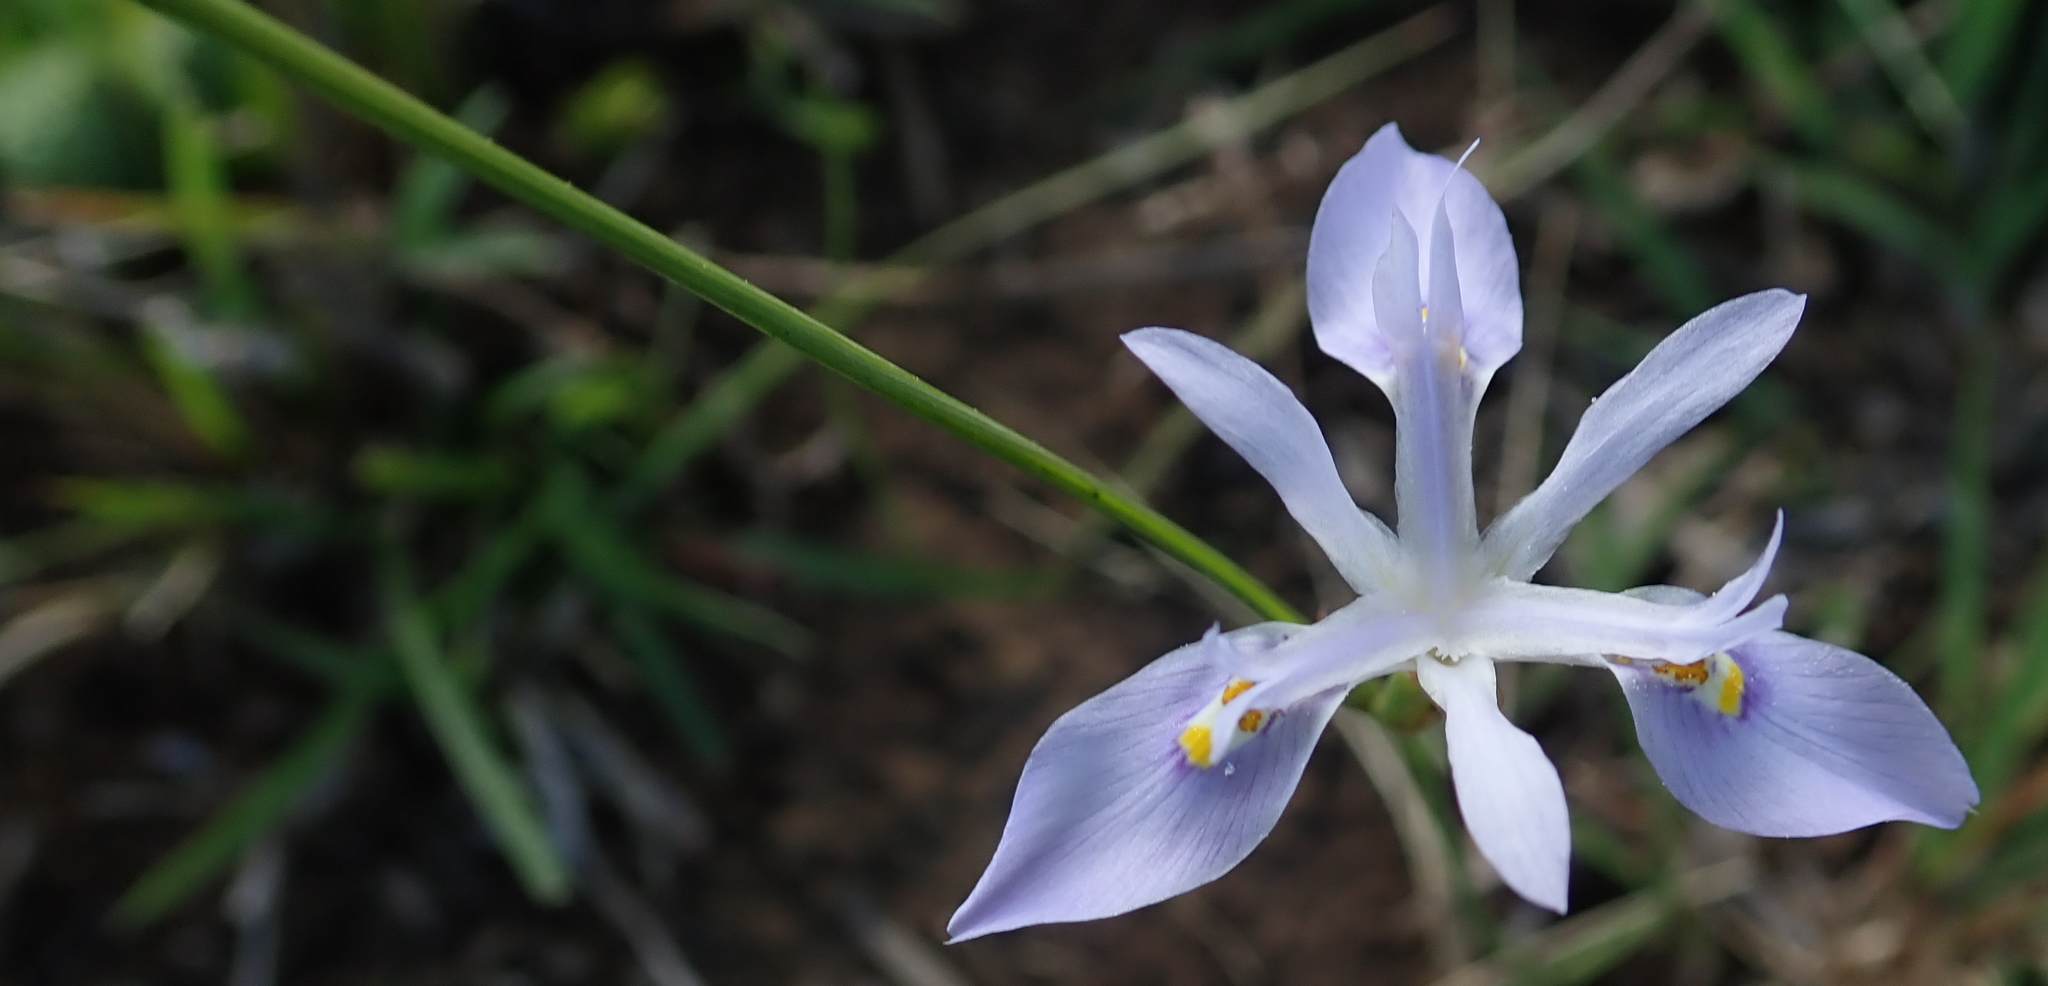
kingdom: Plantae
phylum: Tracheophyta
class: Liliopsida
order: Asparagales
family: Iridaceae
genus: Moraea
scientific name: Moraea elliotii
